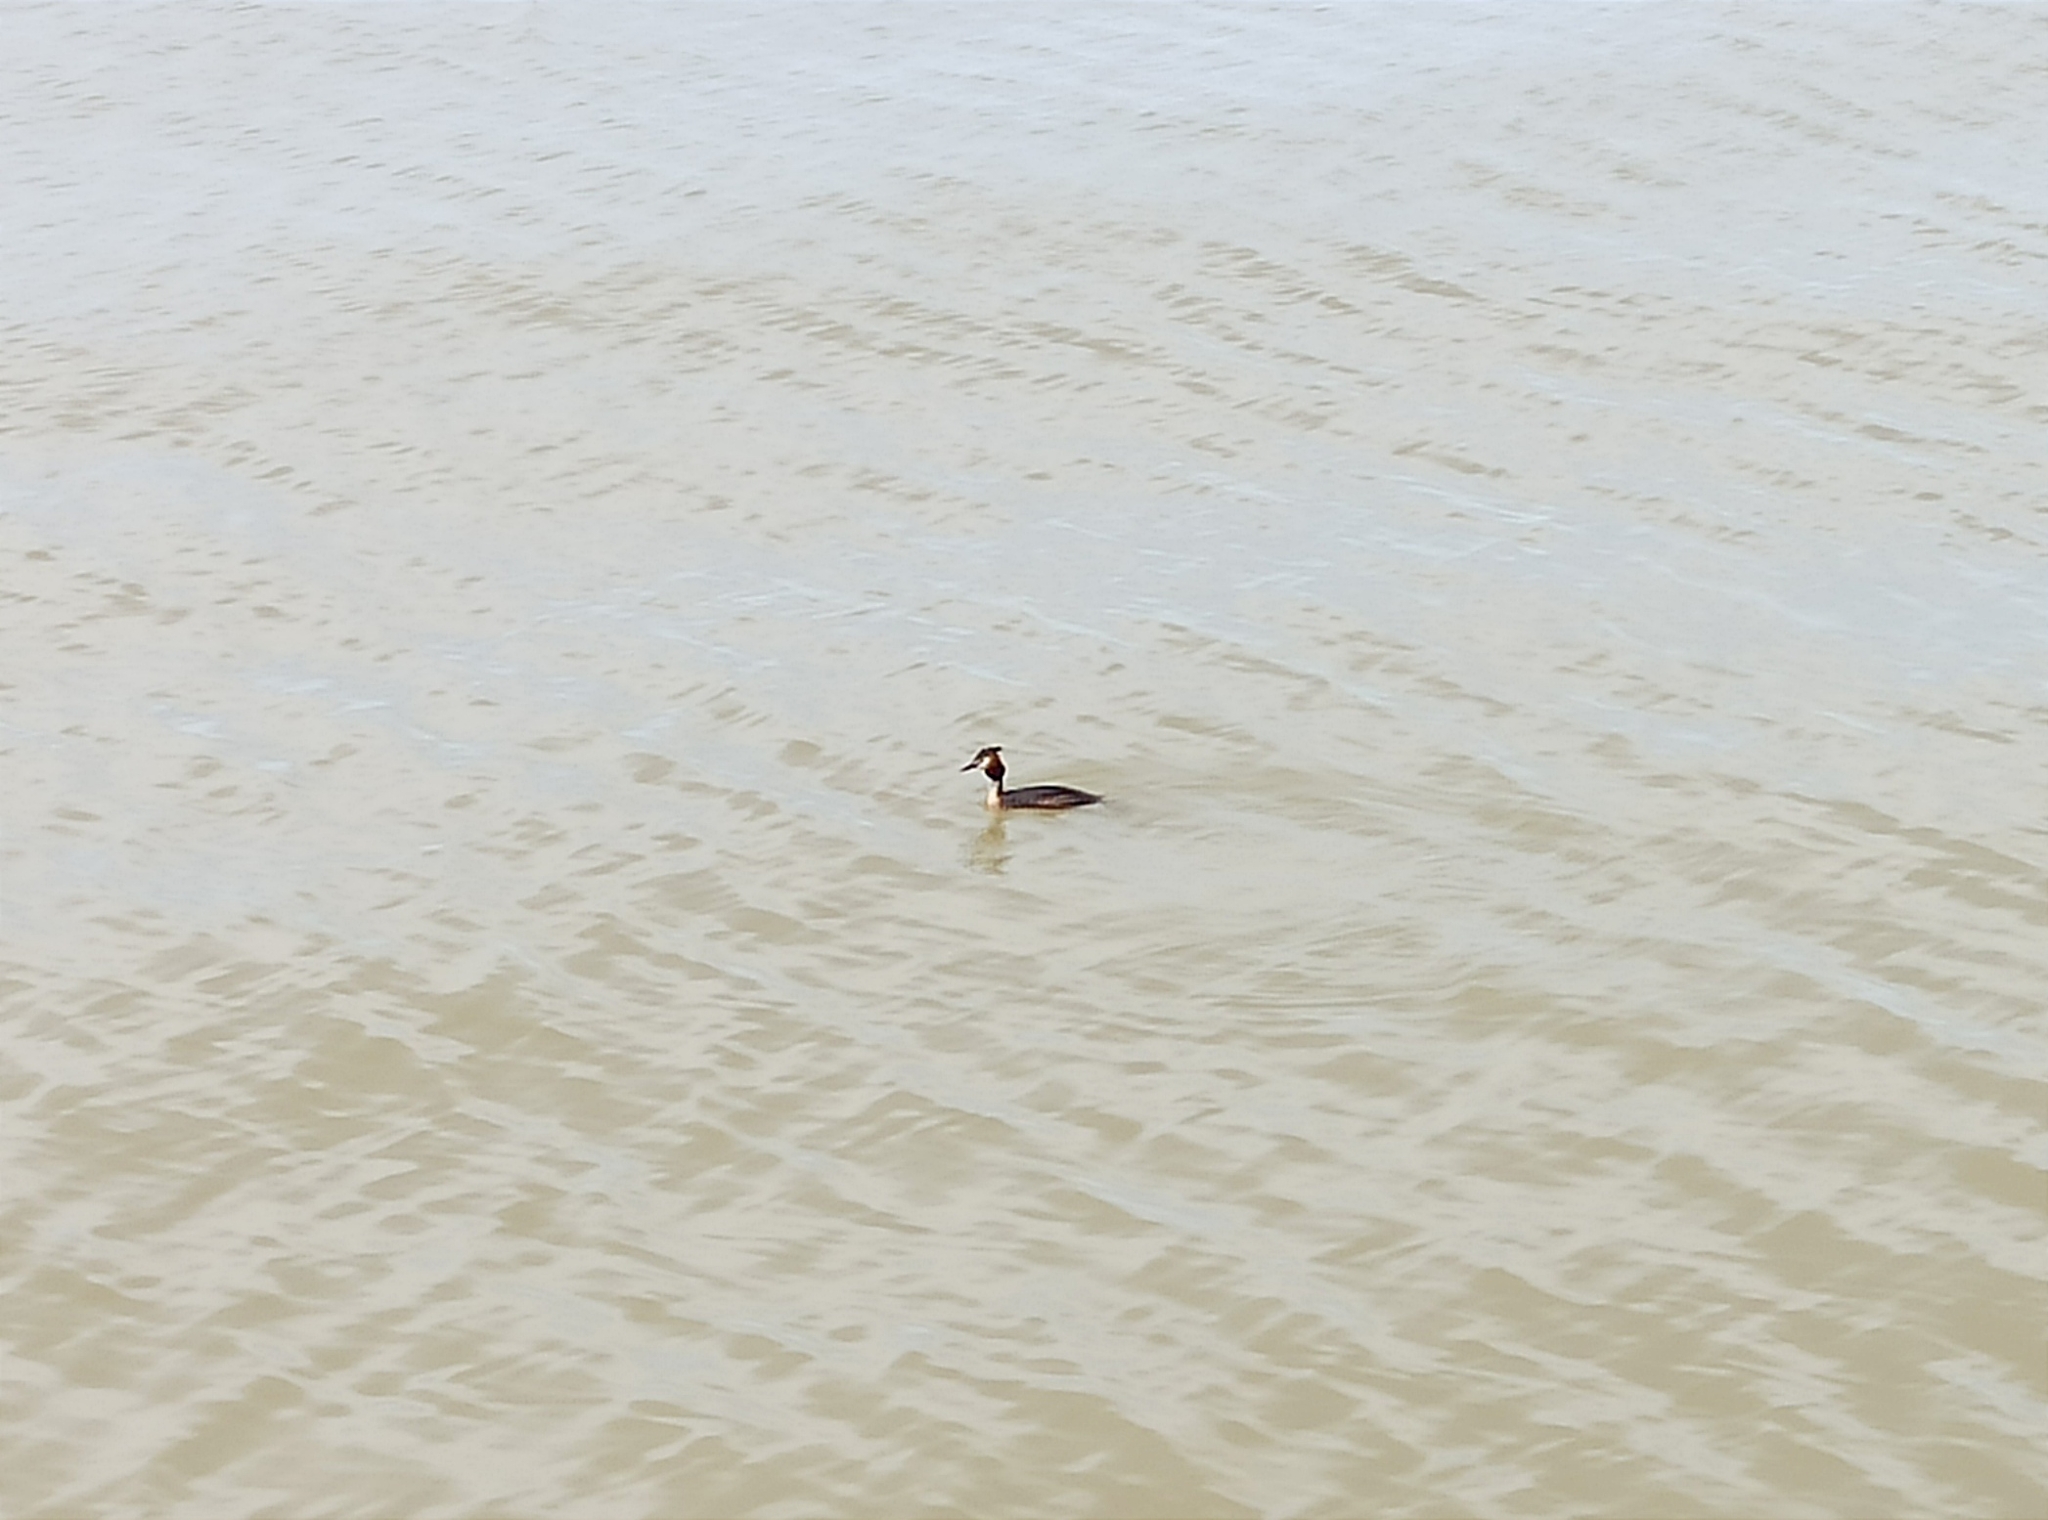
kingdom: Animalia
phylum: Chordata
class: Aves
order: Podicipediformes
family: Podicipedidae
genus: Podiceps
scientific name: Podiceps cristatus
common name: Great crested grebe
